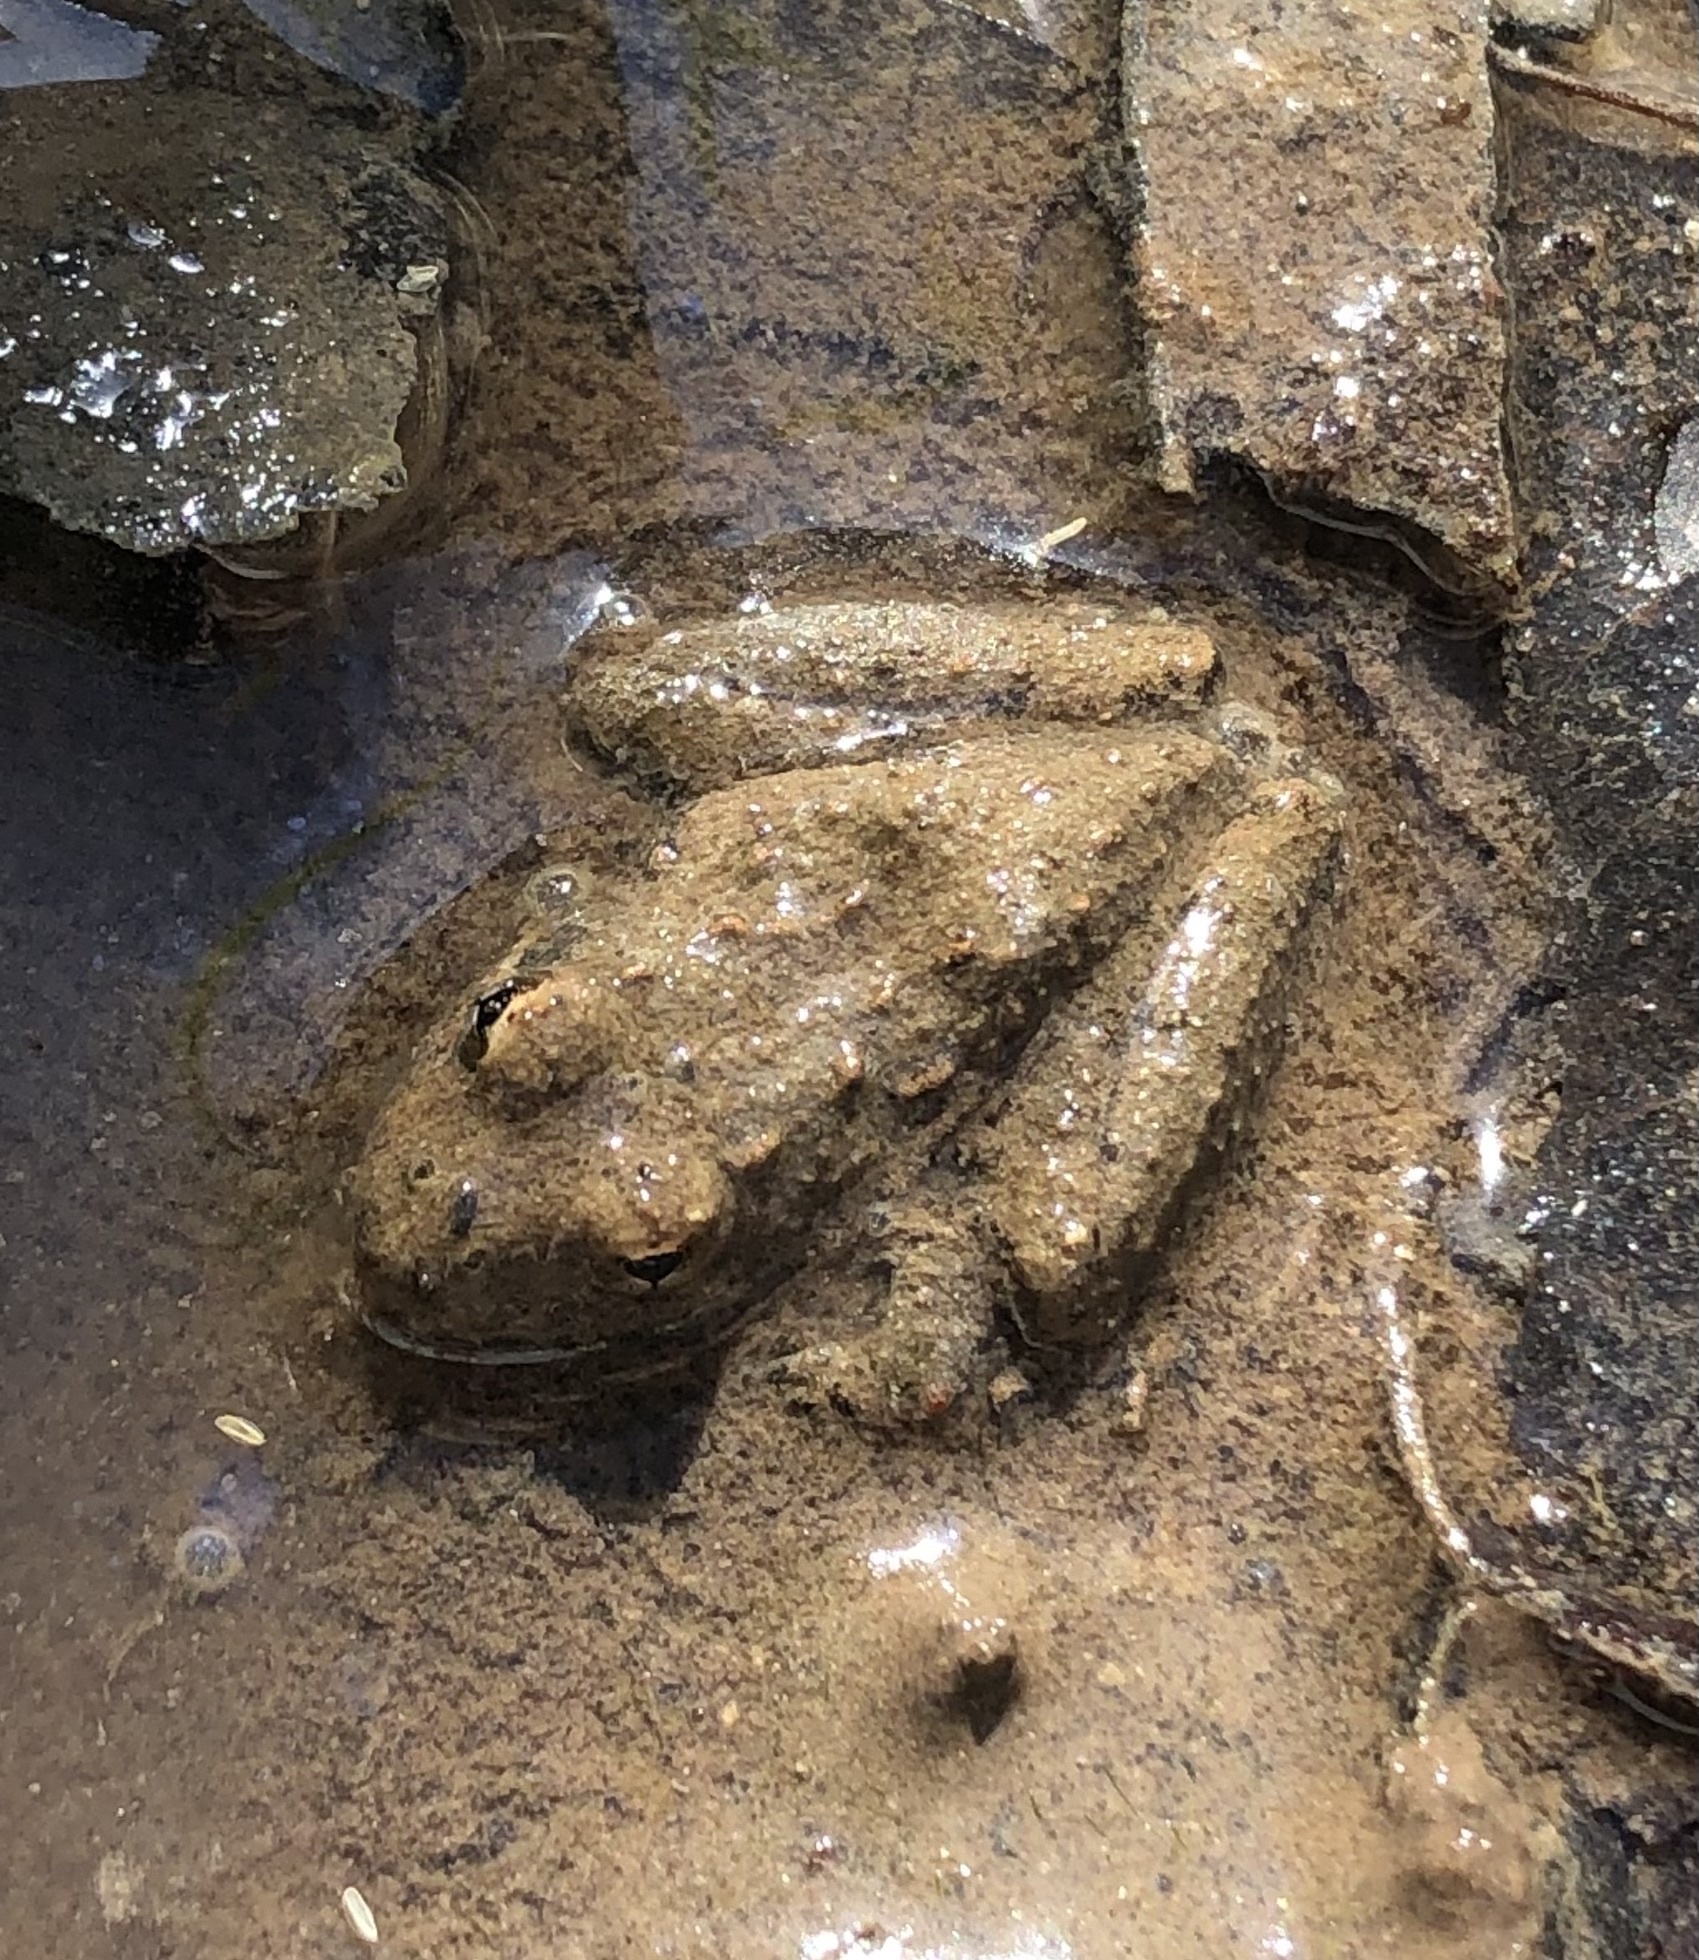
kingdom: Animalia
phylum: Chordata
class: Amphibia
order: Anura
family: Hylidae
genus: Acris
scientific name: Acris blanchardi
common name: Blanchard's cricket frog
